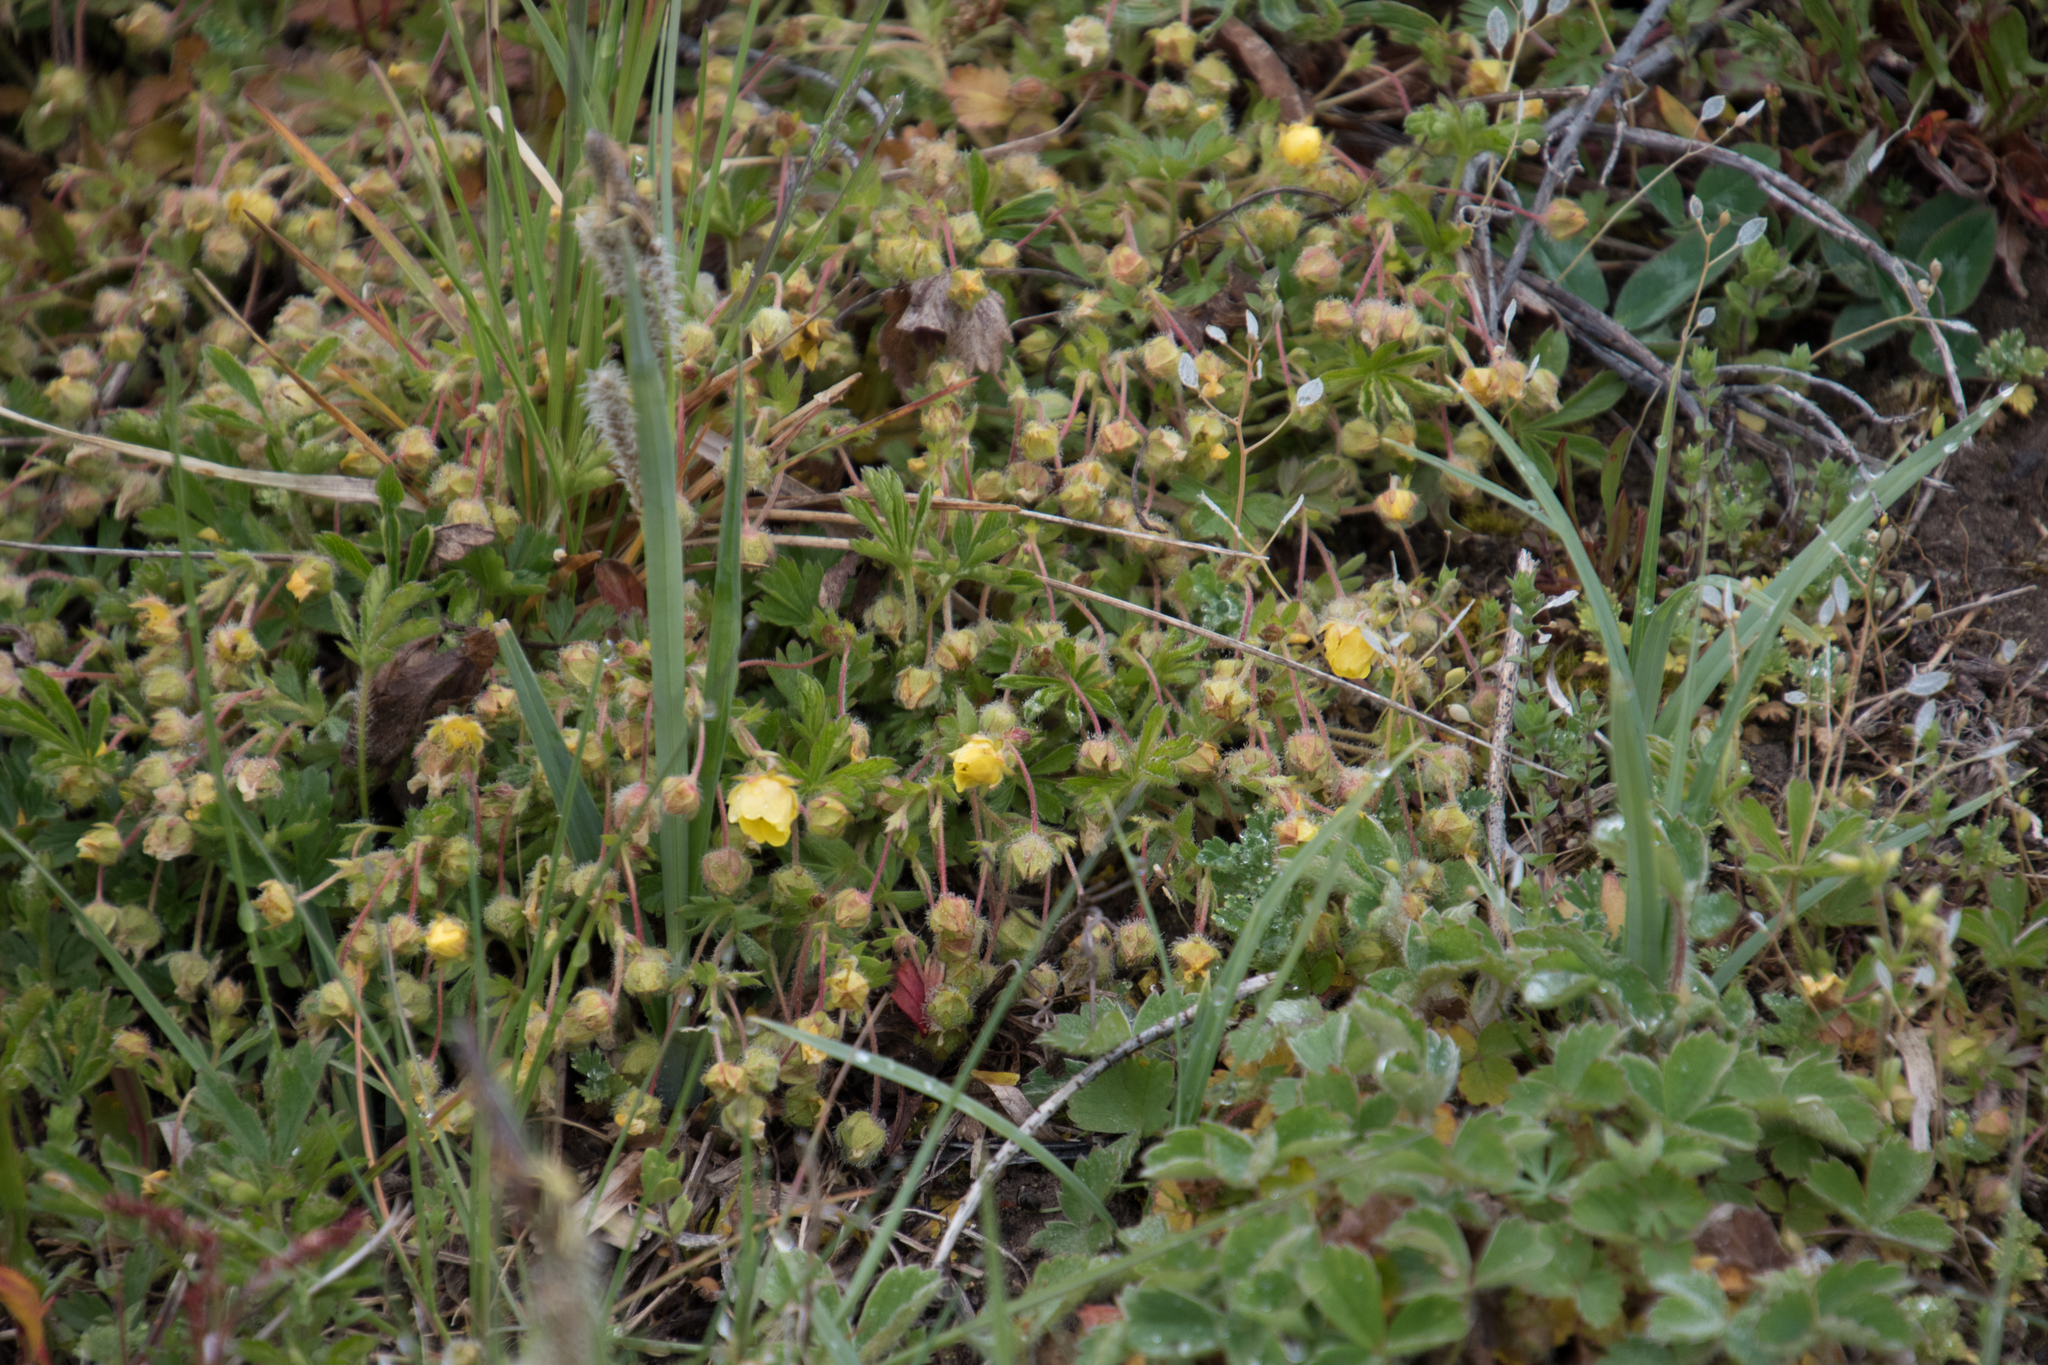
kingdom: Plantae
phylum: Tracheophyta
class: Magnoliopsida
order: Rosales
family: Rosaceae
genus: Potentilla
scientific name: Potentilla verna
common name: Spring cinquefoil
